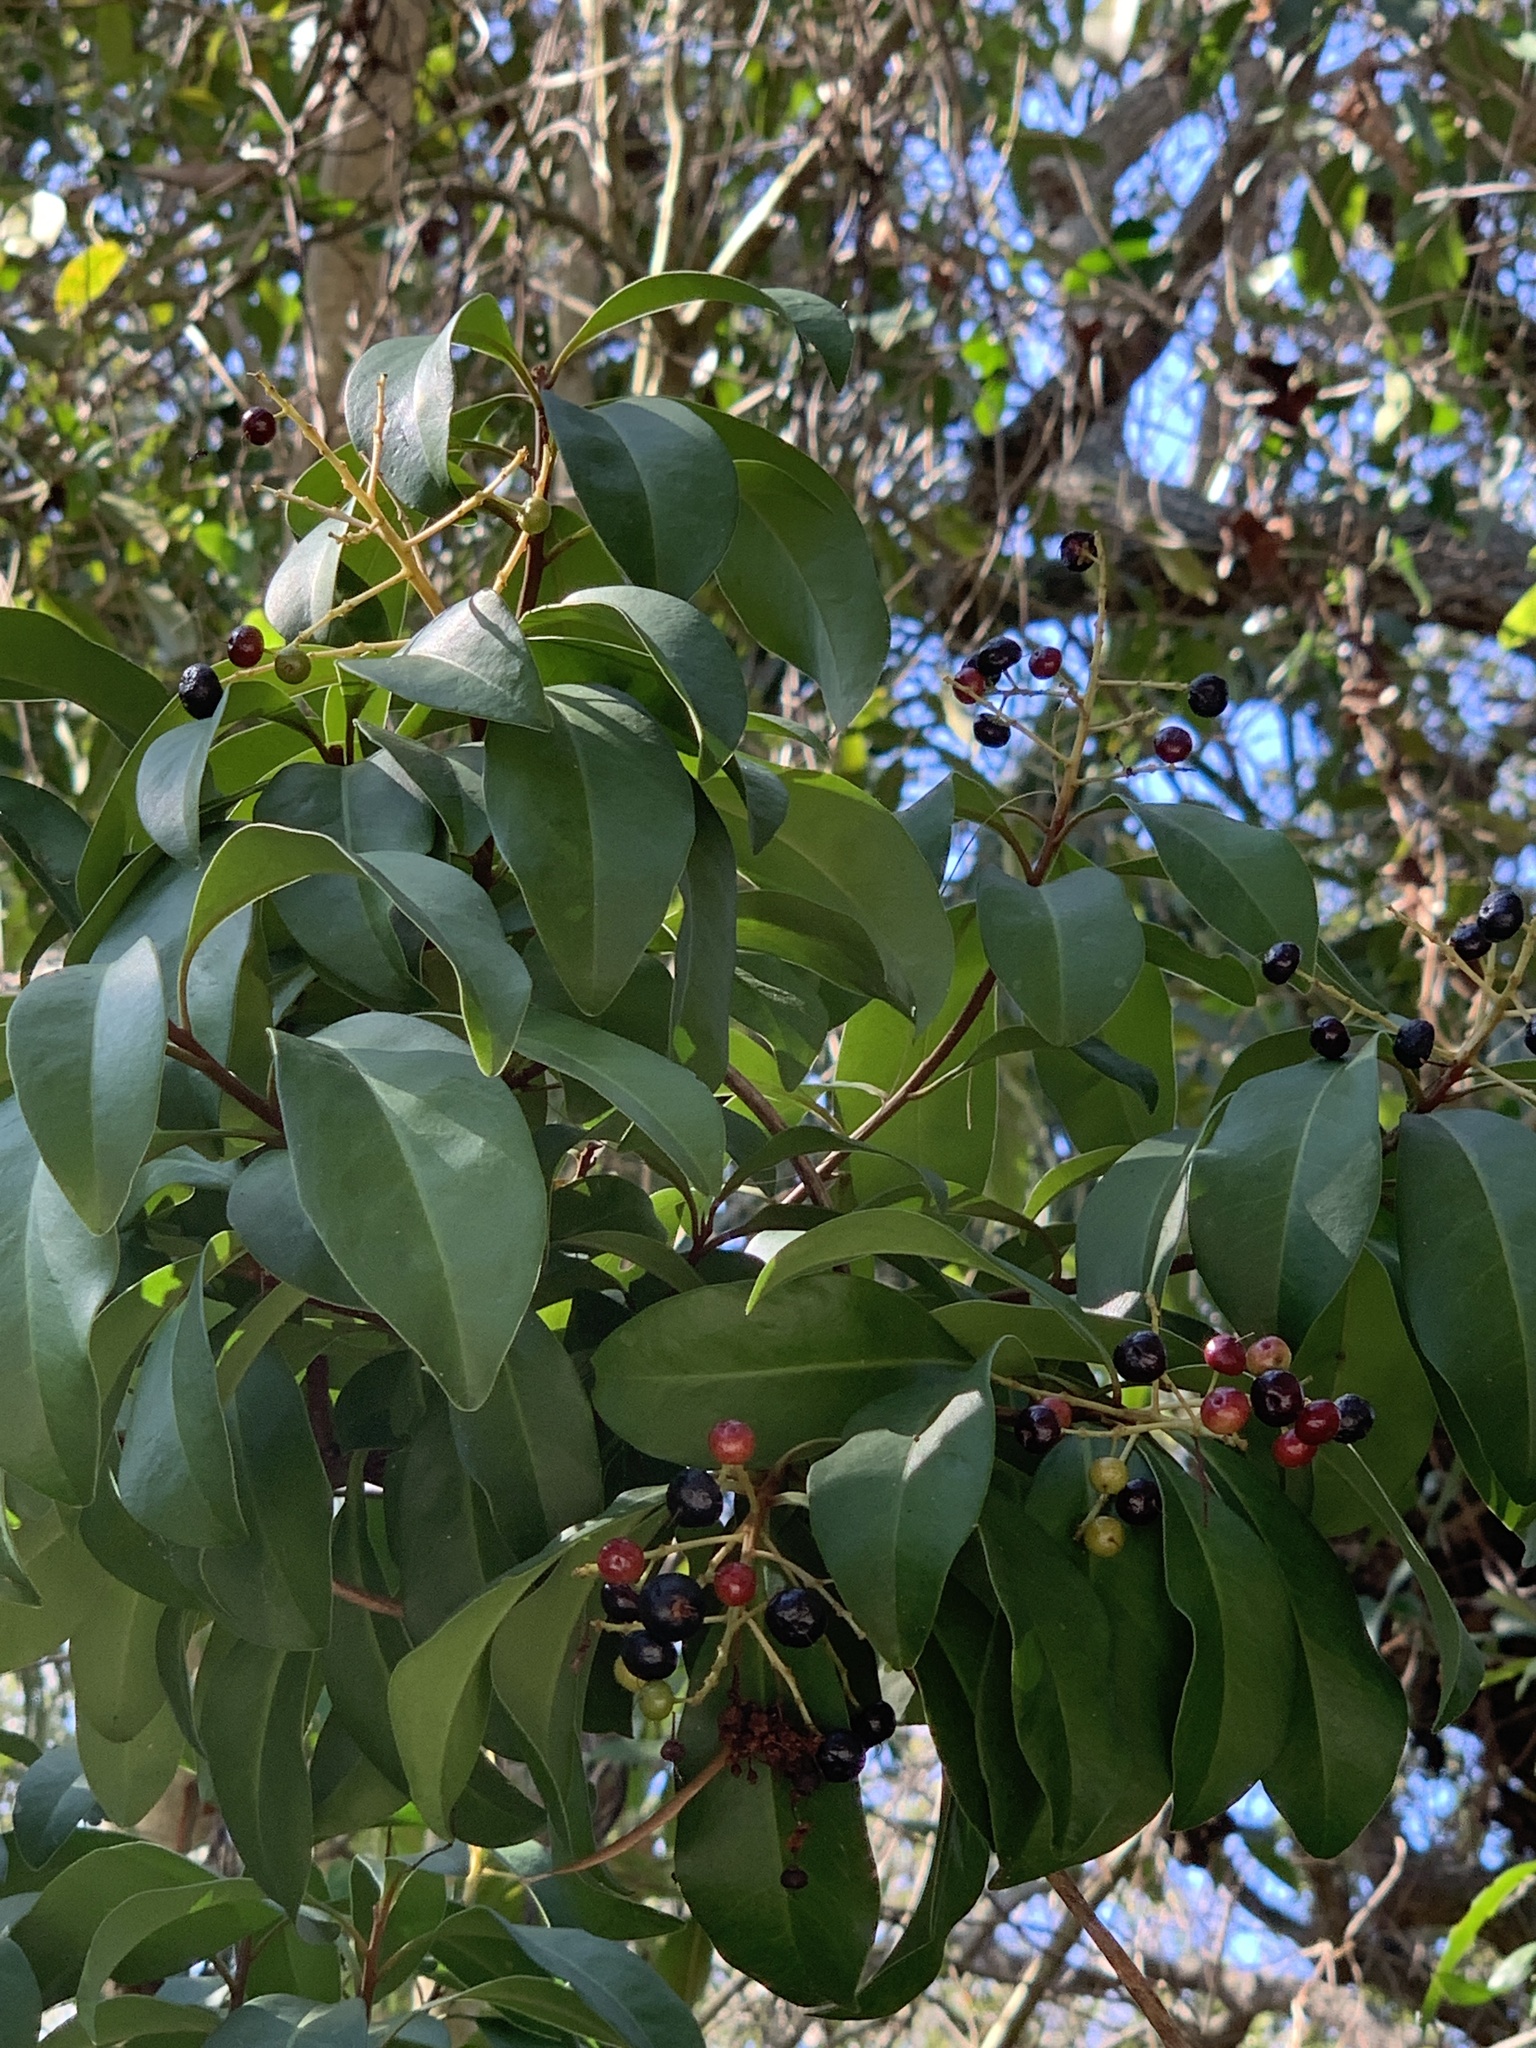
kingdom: Plantae
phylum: Tracheophyta
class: Magnoliopsida
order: Ericales
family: Primulaceae
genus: Ardisia
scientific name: Ardisia escallonioides
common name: Island marlberry
